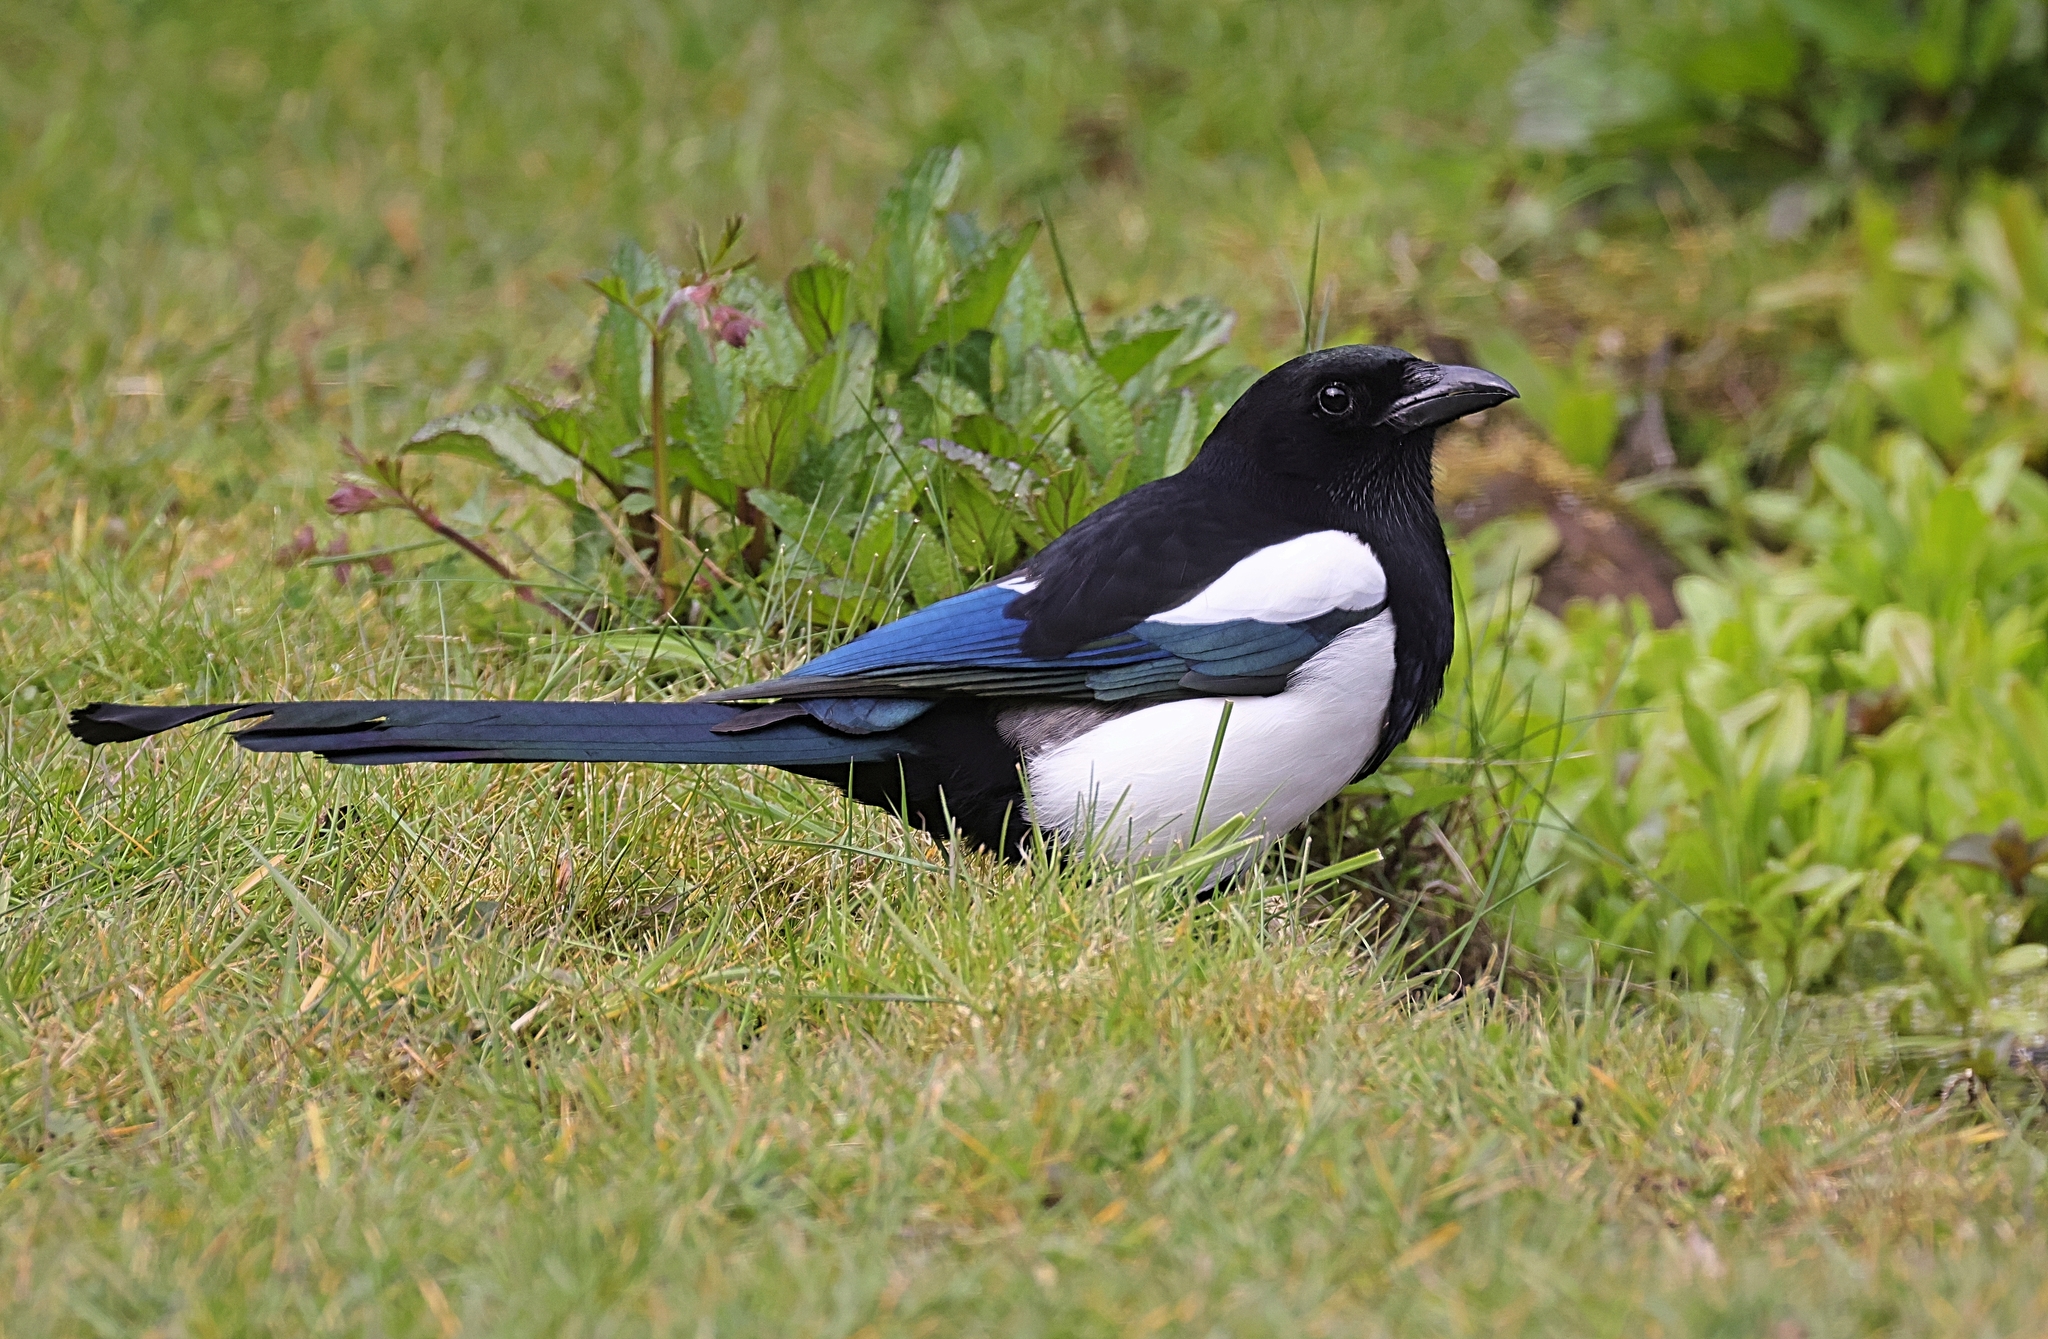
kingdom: Animalia
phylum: Chordata
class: Aves
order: Passeriformes
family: Corvidae
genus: Pica
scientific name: Pica pica
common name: Eurasian magpie
